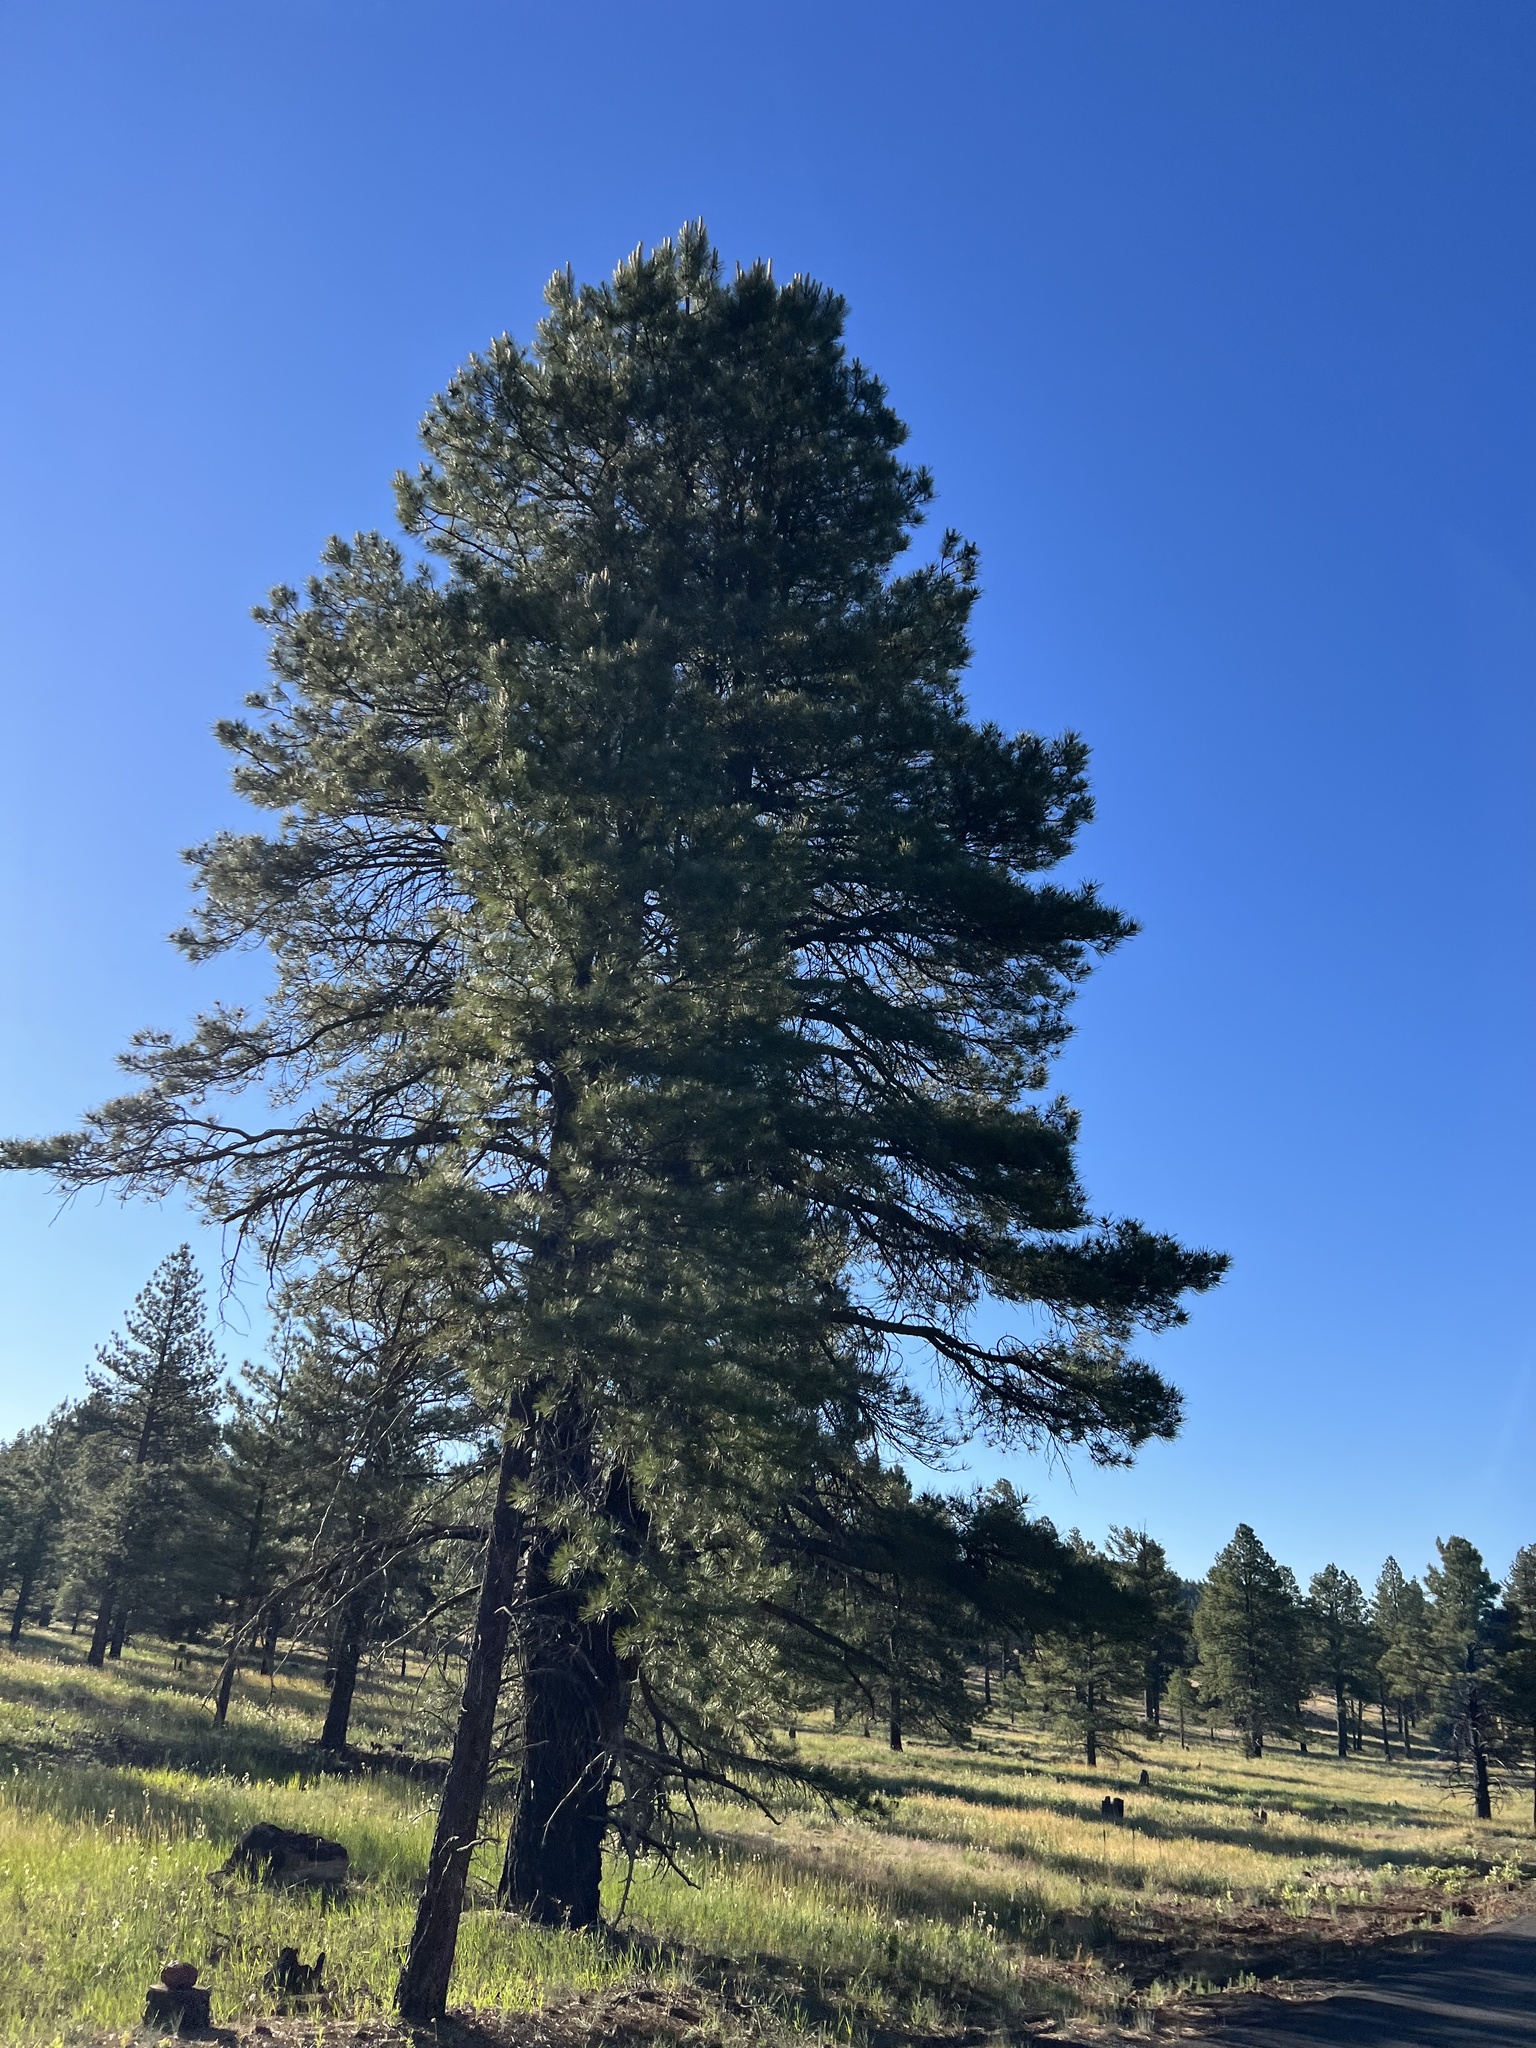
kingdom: Plantae
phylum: Tracheophyta
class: Pinopsida
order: Pinales
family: Pinaceae
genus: Pinus
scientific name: Pinus ponderosa
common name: Western yellow-pine
